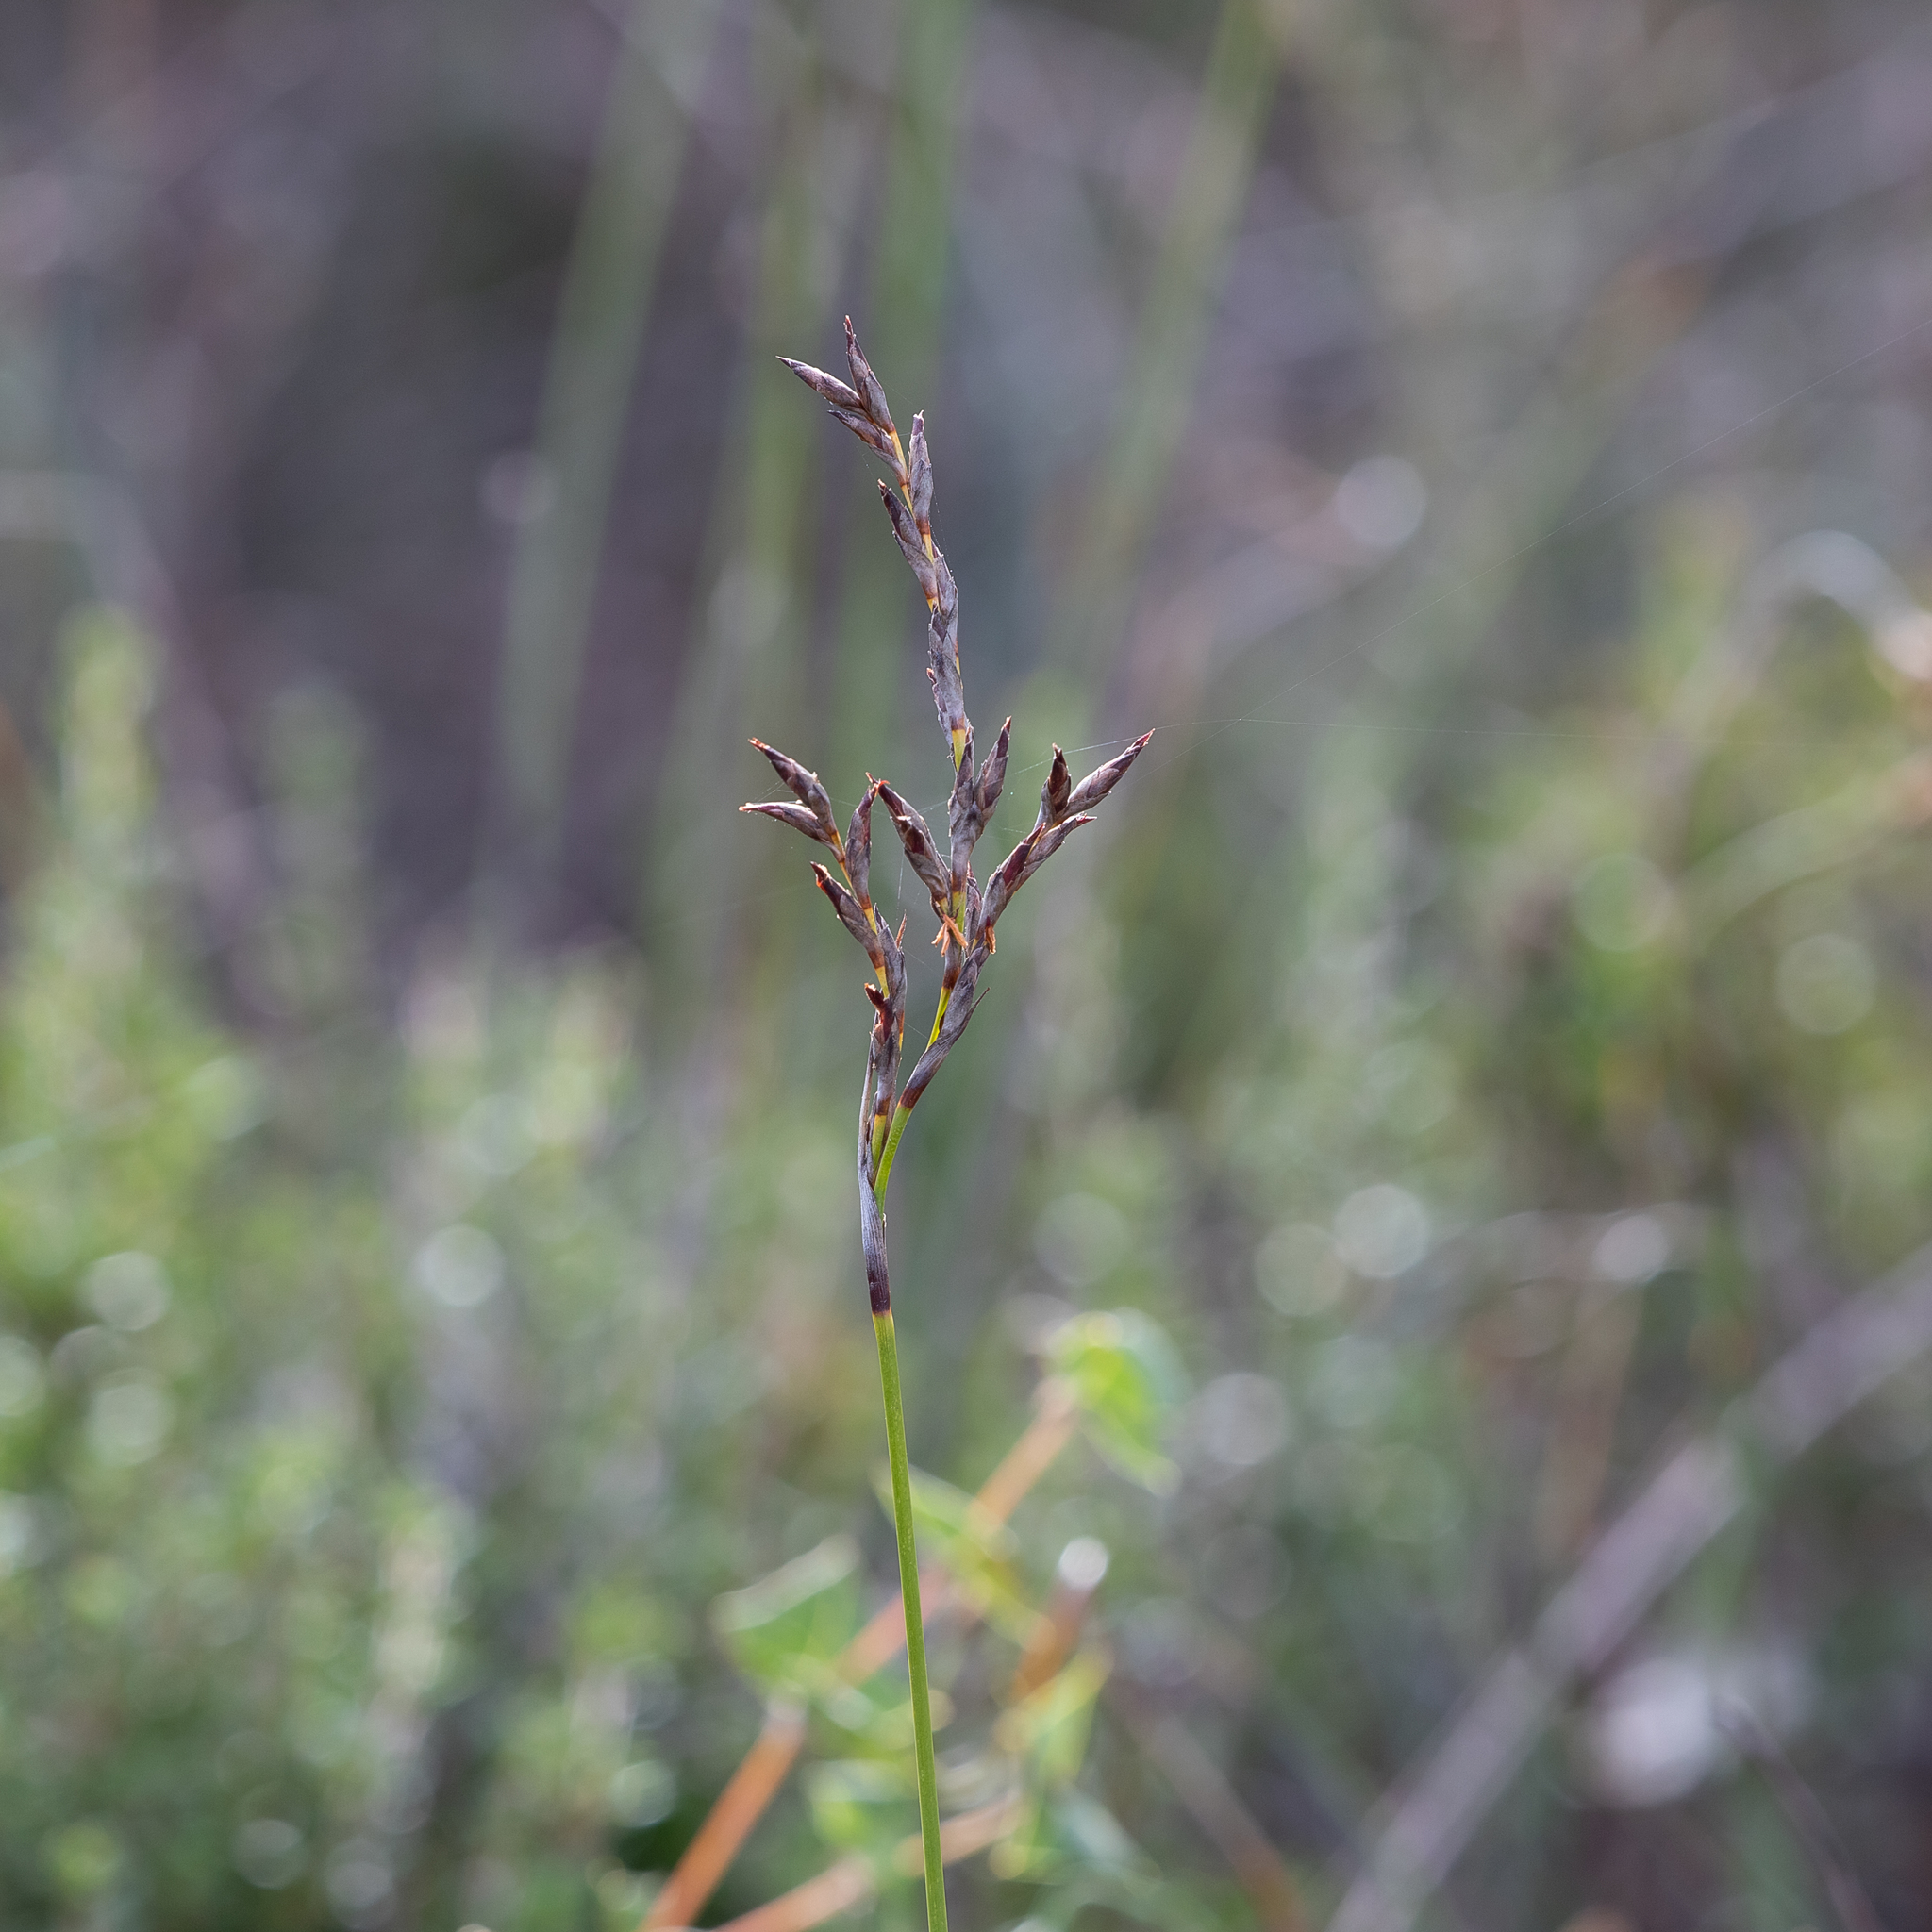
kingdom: Plantae
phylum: Tracheophyta
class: Liliopsida
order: Poales
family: Cyperaceae
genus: Lepidosperma
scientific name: Lepidosperma semiteres
